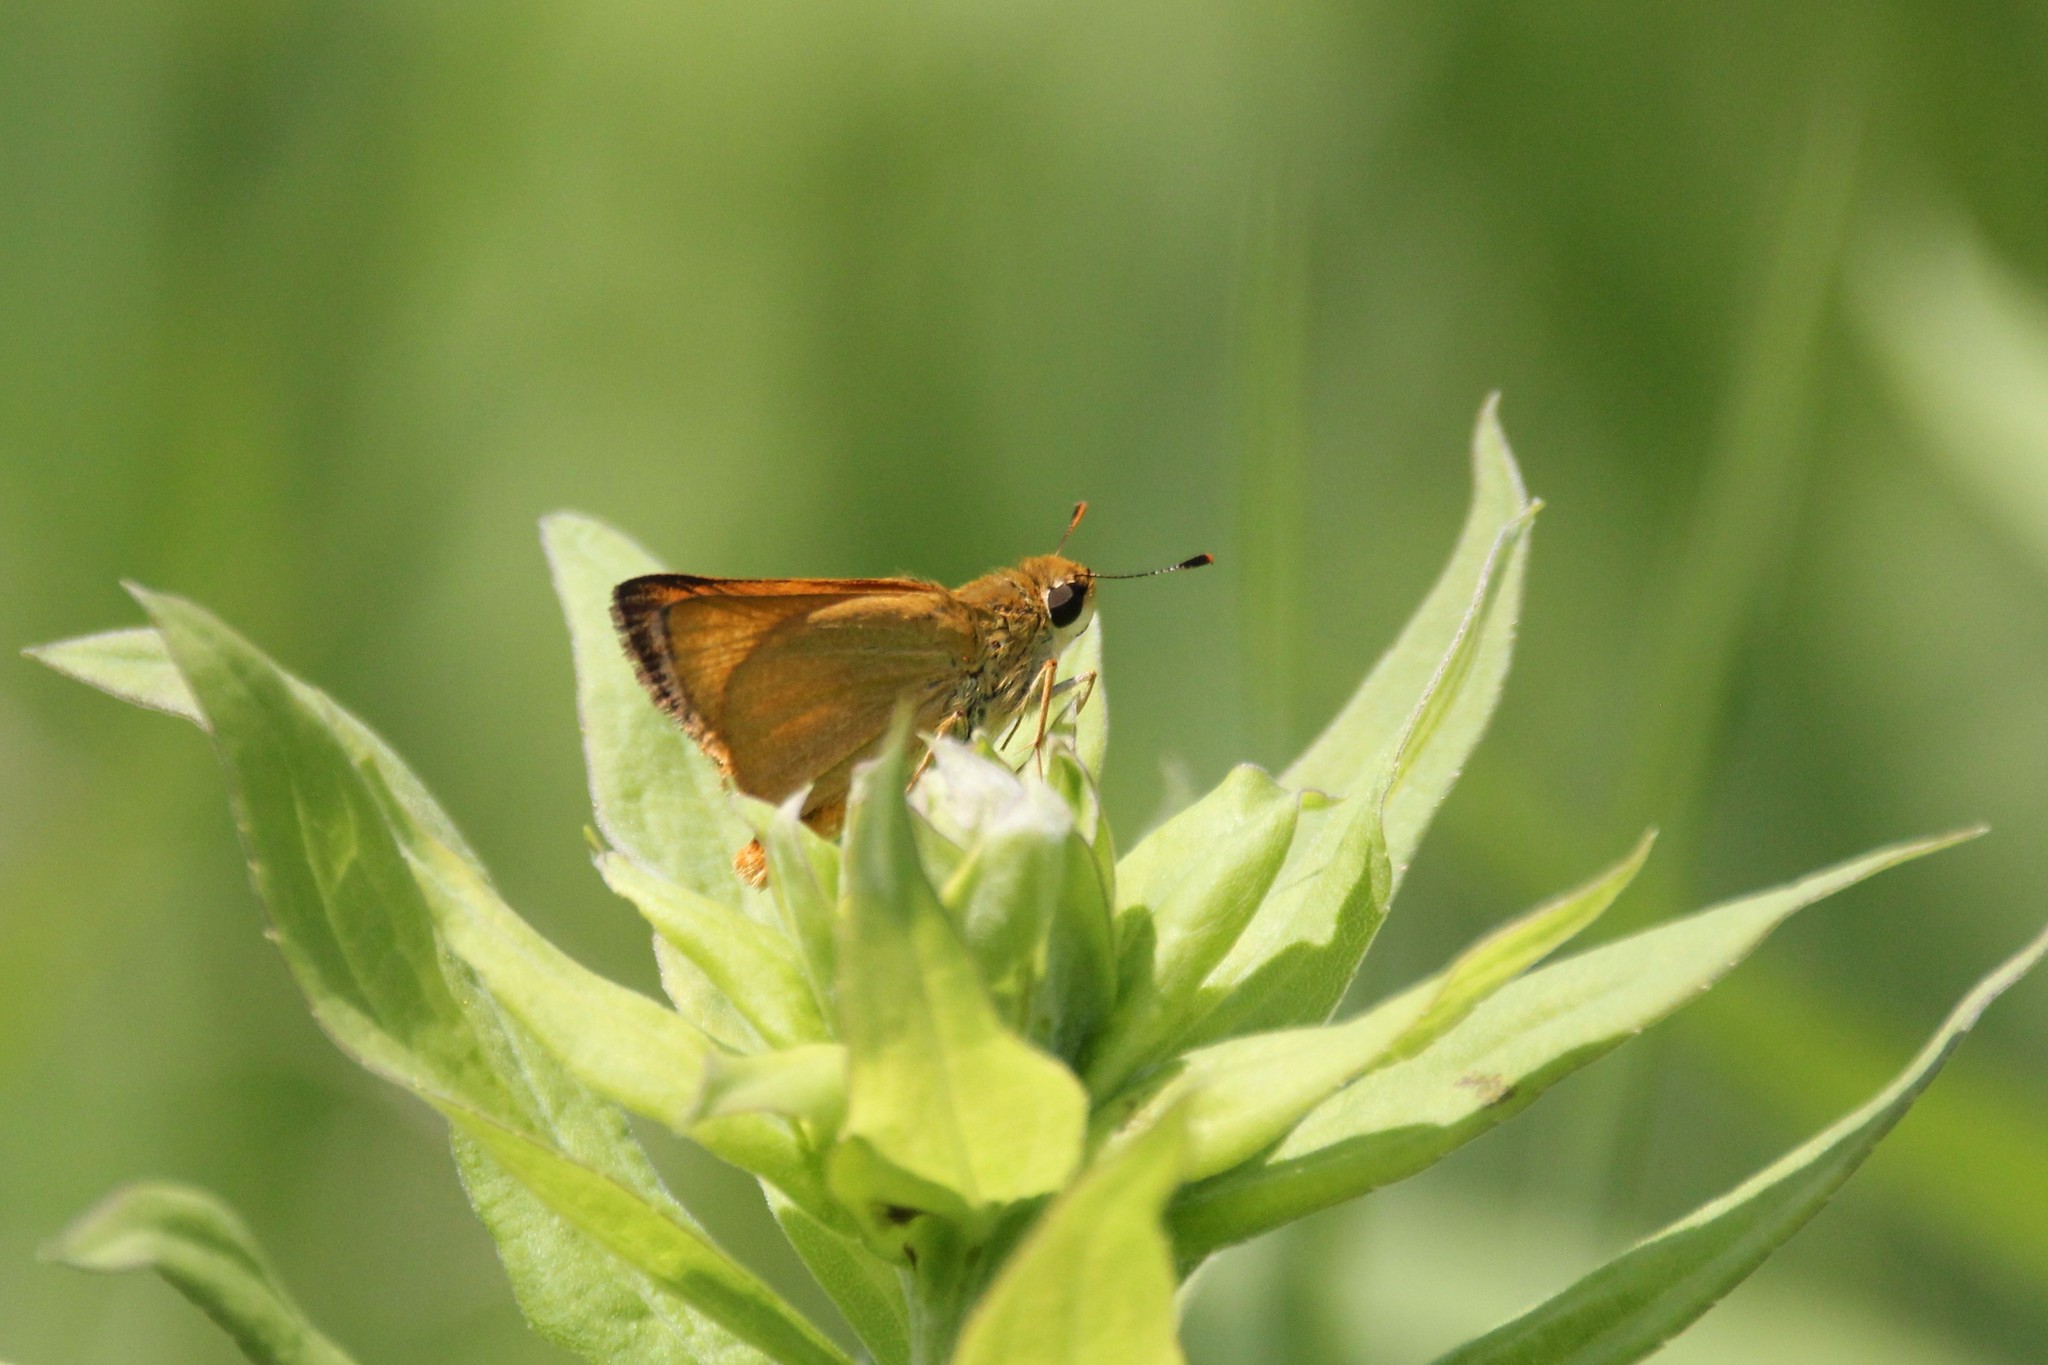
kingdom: Animalia
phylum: Arthropoda
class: Insecta
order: Lepidoptera
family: Hesperiidae
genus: Atrytone
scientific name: Atrytone delaware
